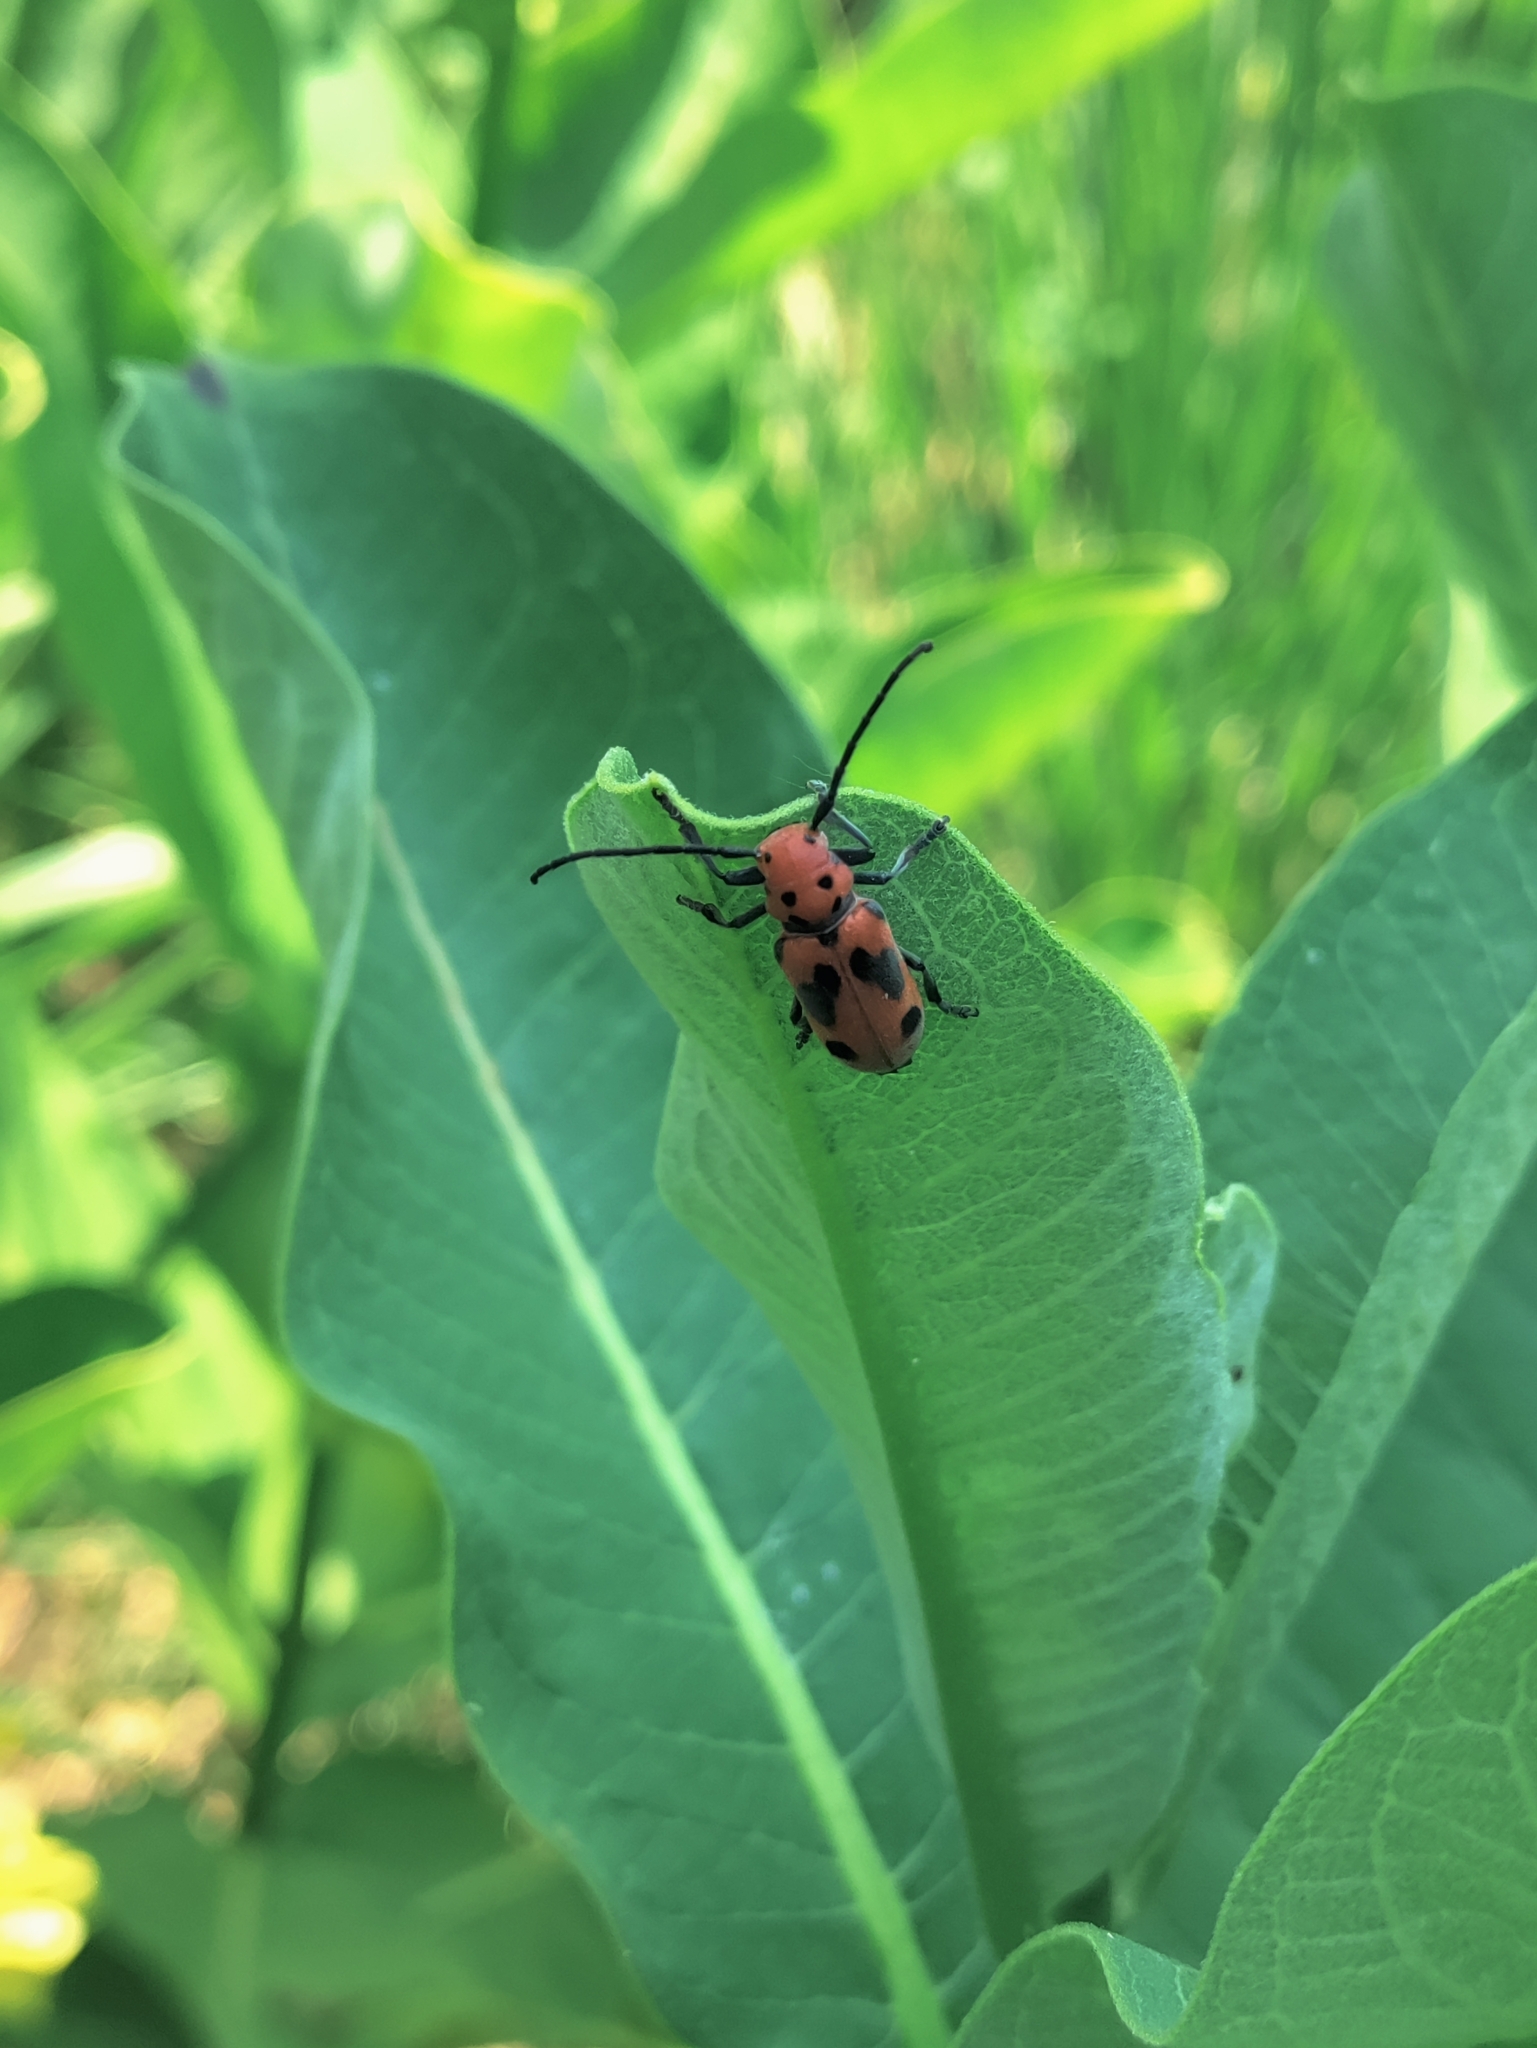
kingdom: Animalia
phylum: Arthropoda
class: Insecta
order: Coleoptera
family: Cerambycidae
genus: Tetraopes
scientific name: Tetraopes tetrophthalmus
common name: Red milkweed beetle
